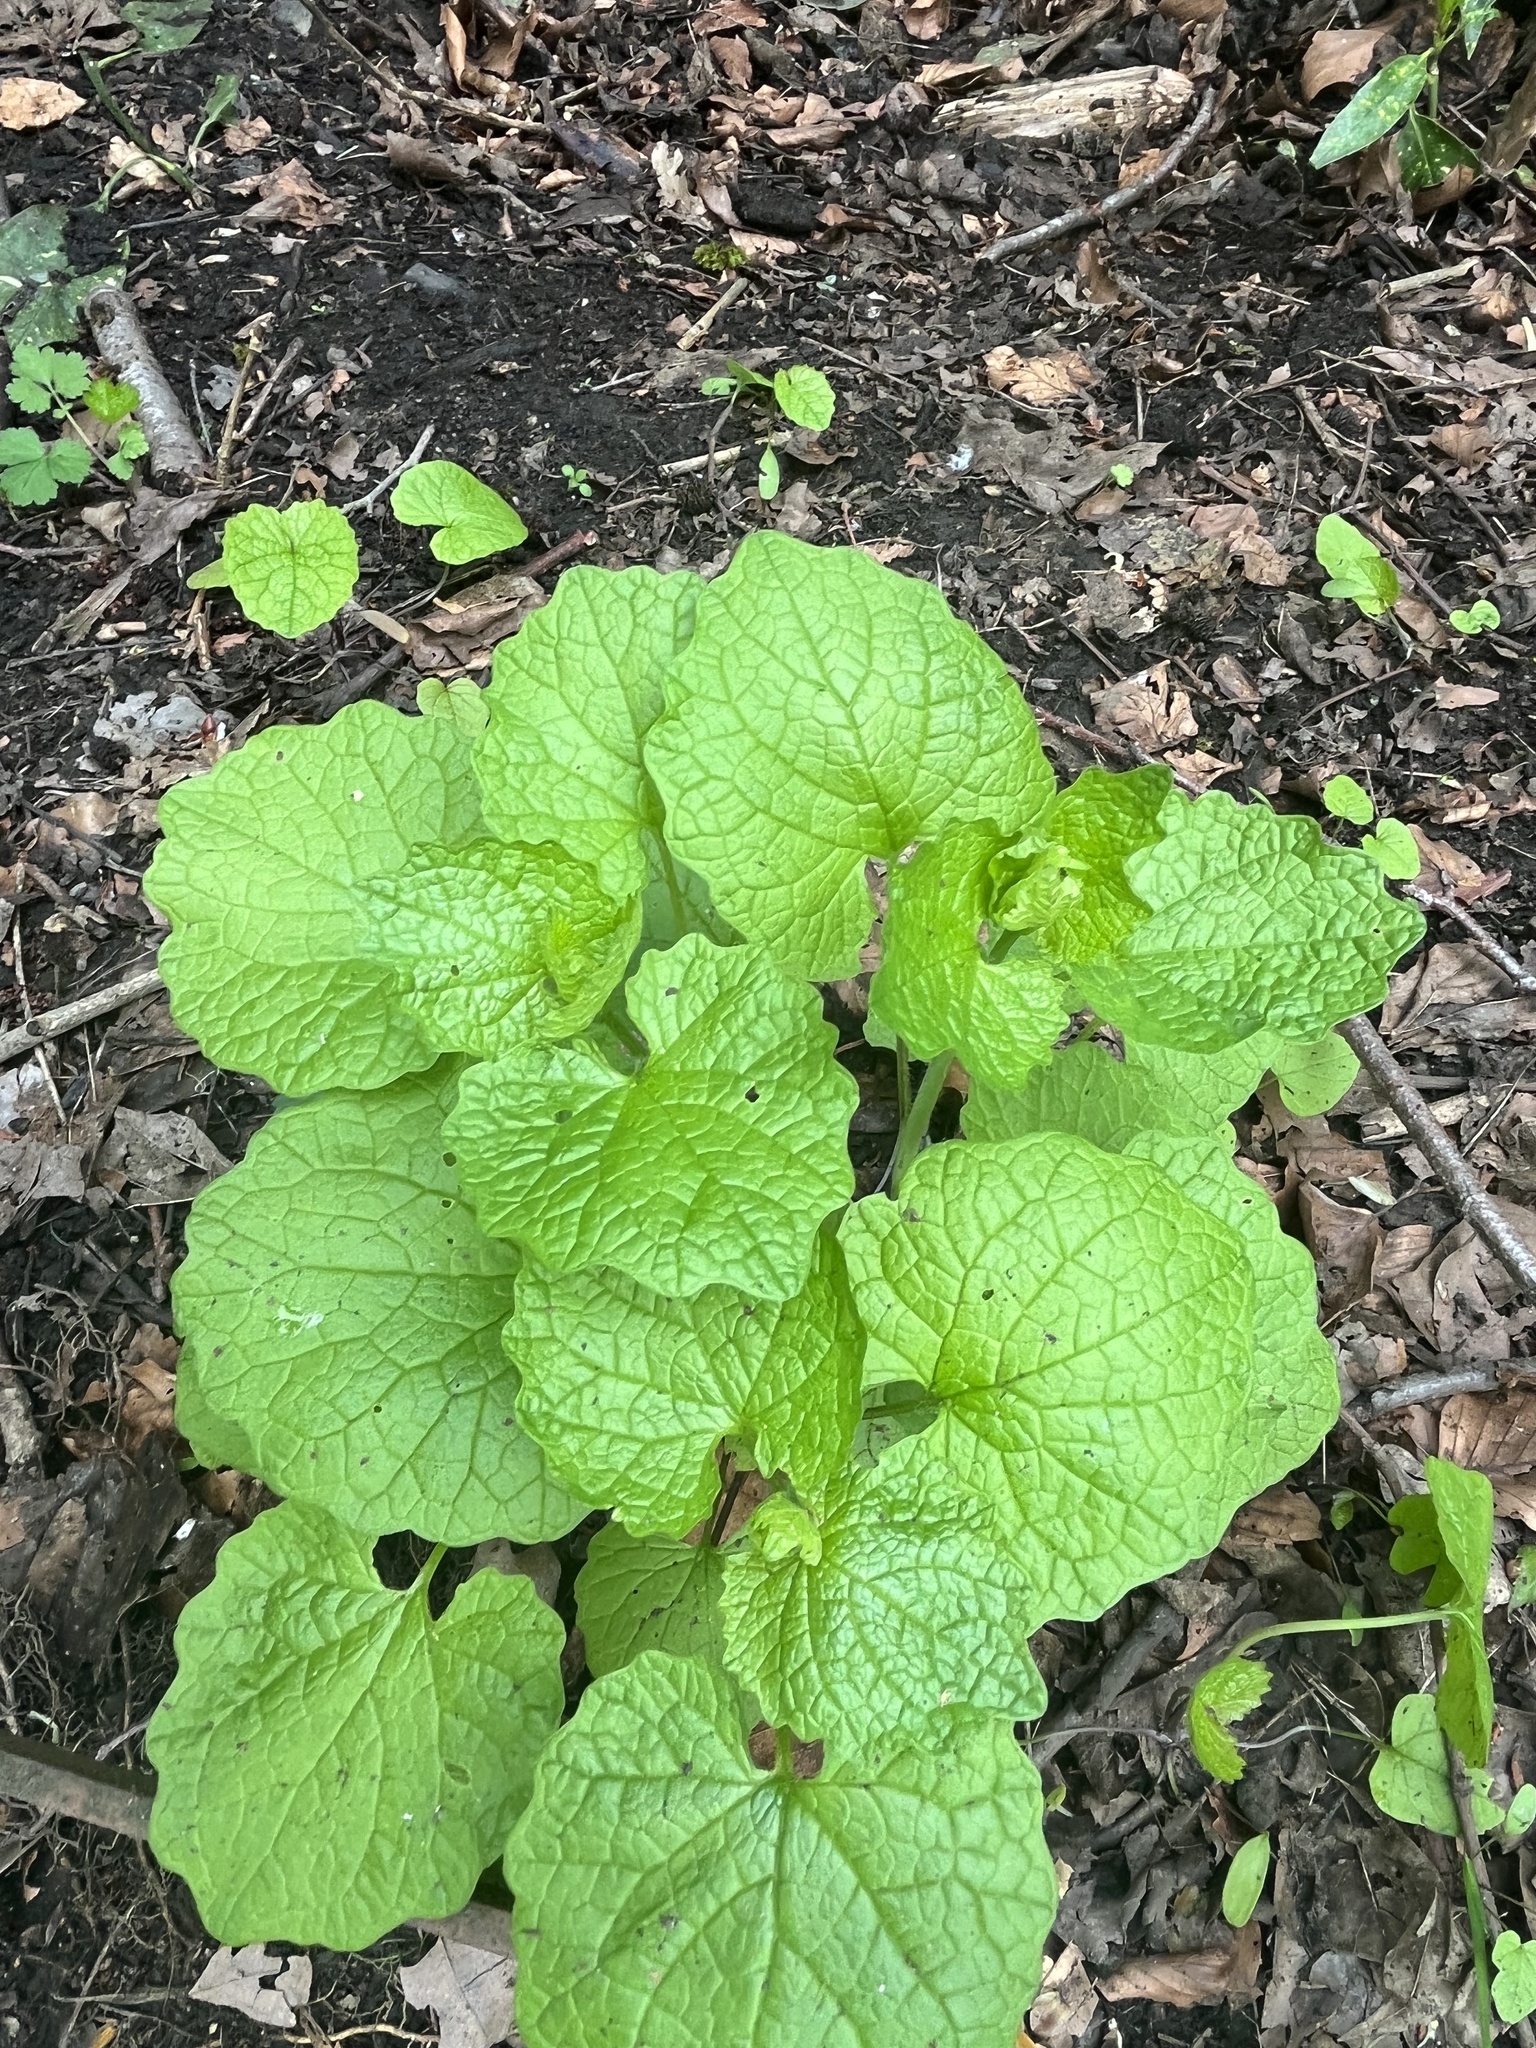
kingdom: Plantae
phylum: Tracheophyta
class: Magnoliopsida
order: Brassicales
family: Brassicaceae
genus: Alliaria
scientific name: Alliaria petiolata
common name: Garlic mustard
